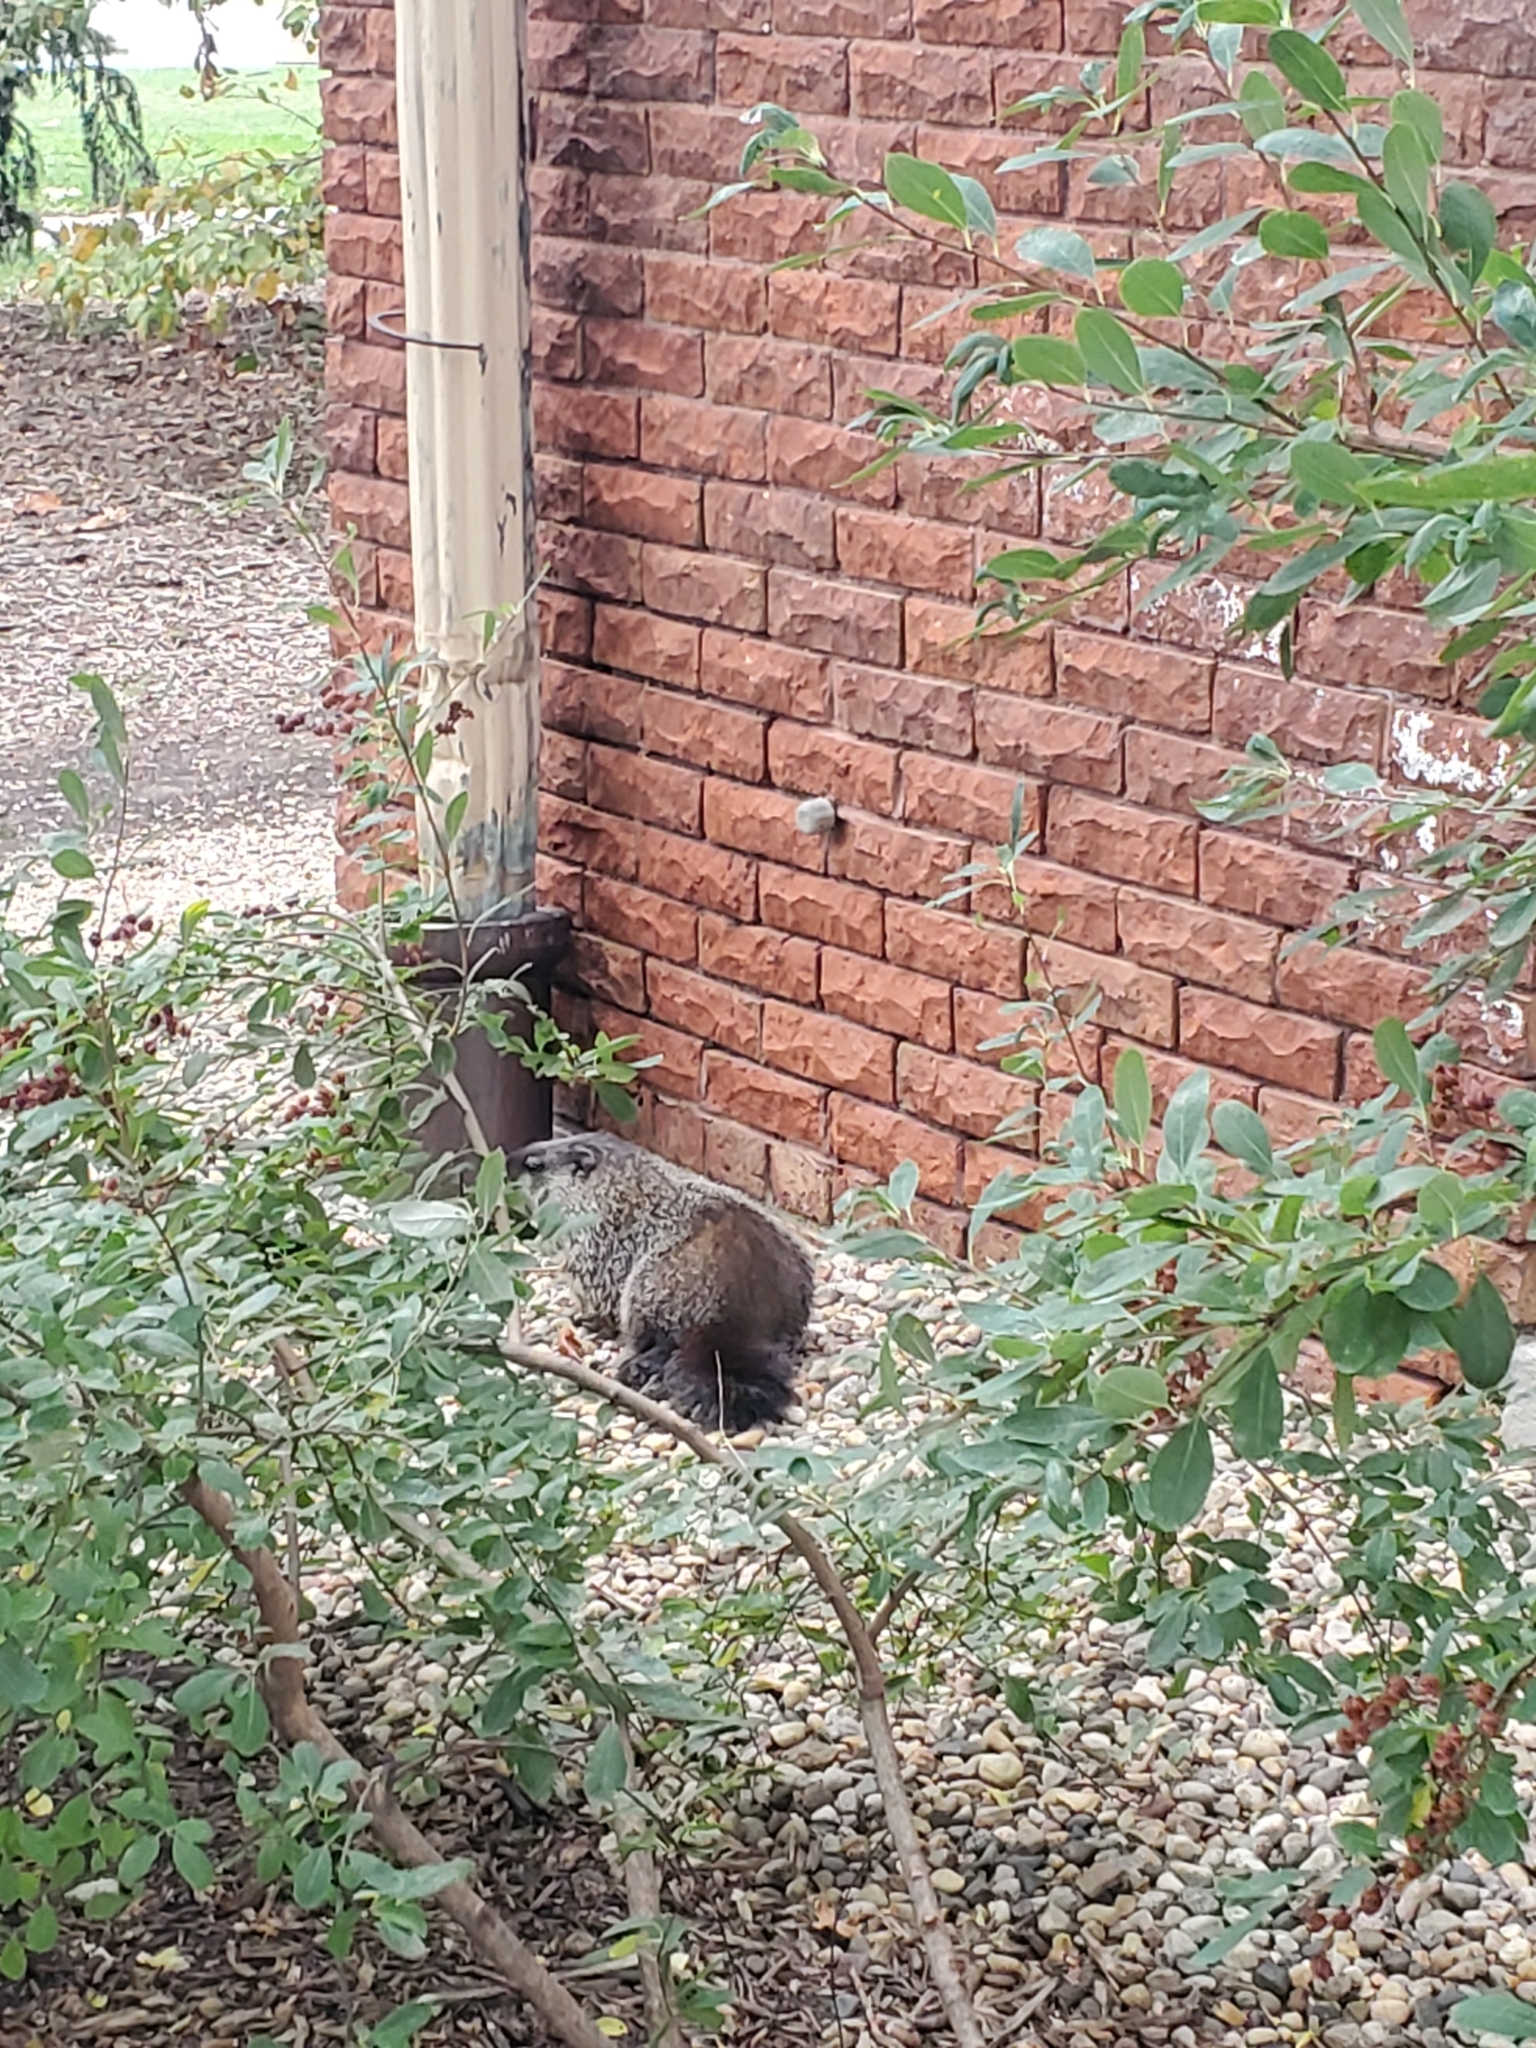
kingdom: Animalia
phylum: Chordata
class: Mammalia
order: Rodentia
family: Sciuridae
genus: Marmota
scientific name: Marmota monax
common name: Groundhog
